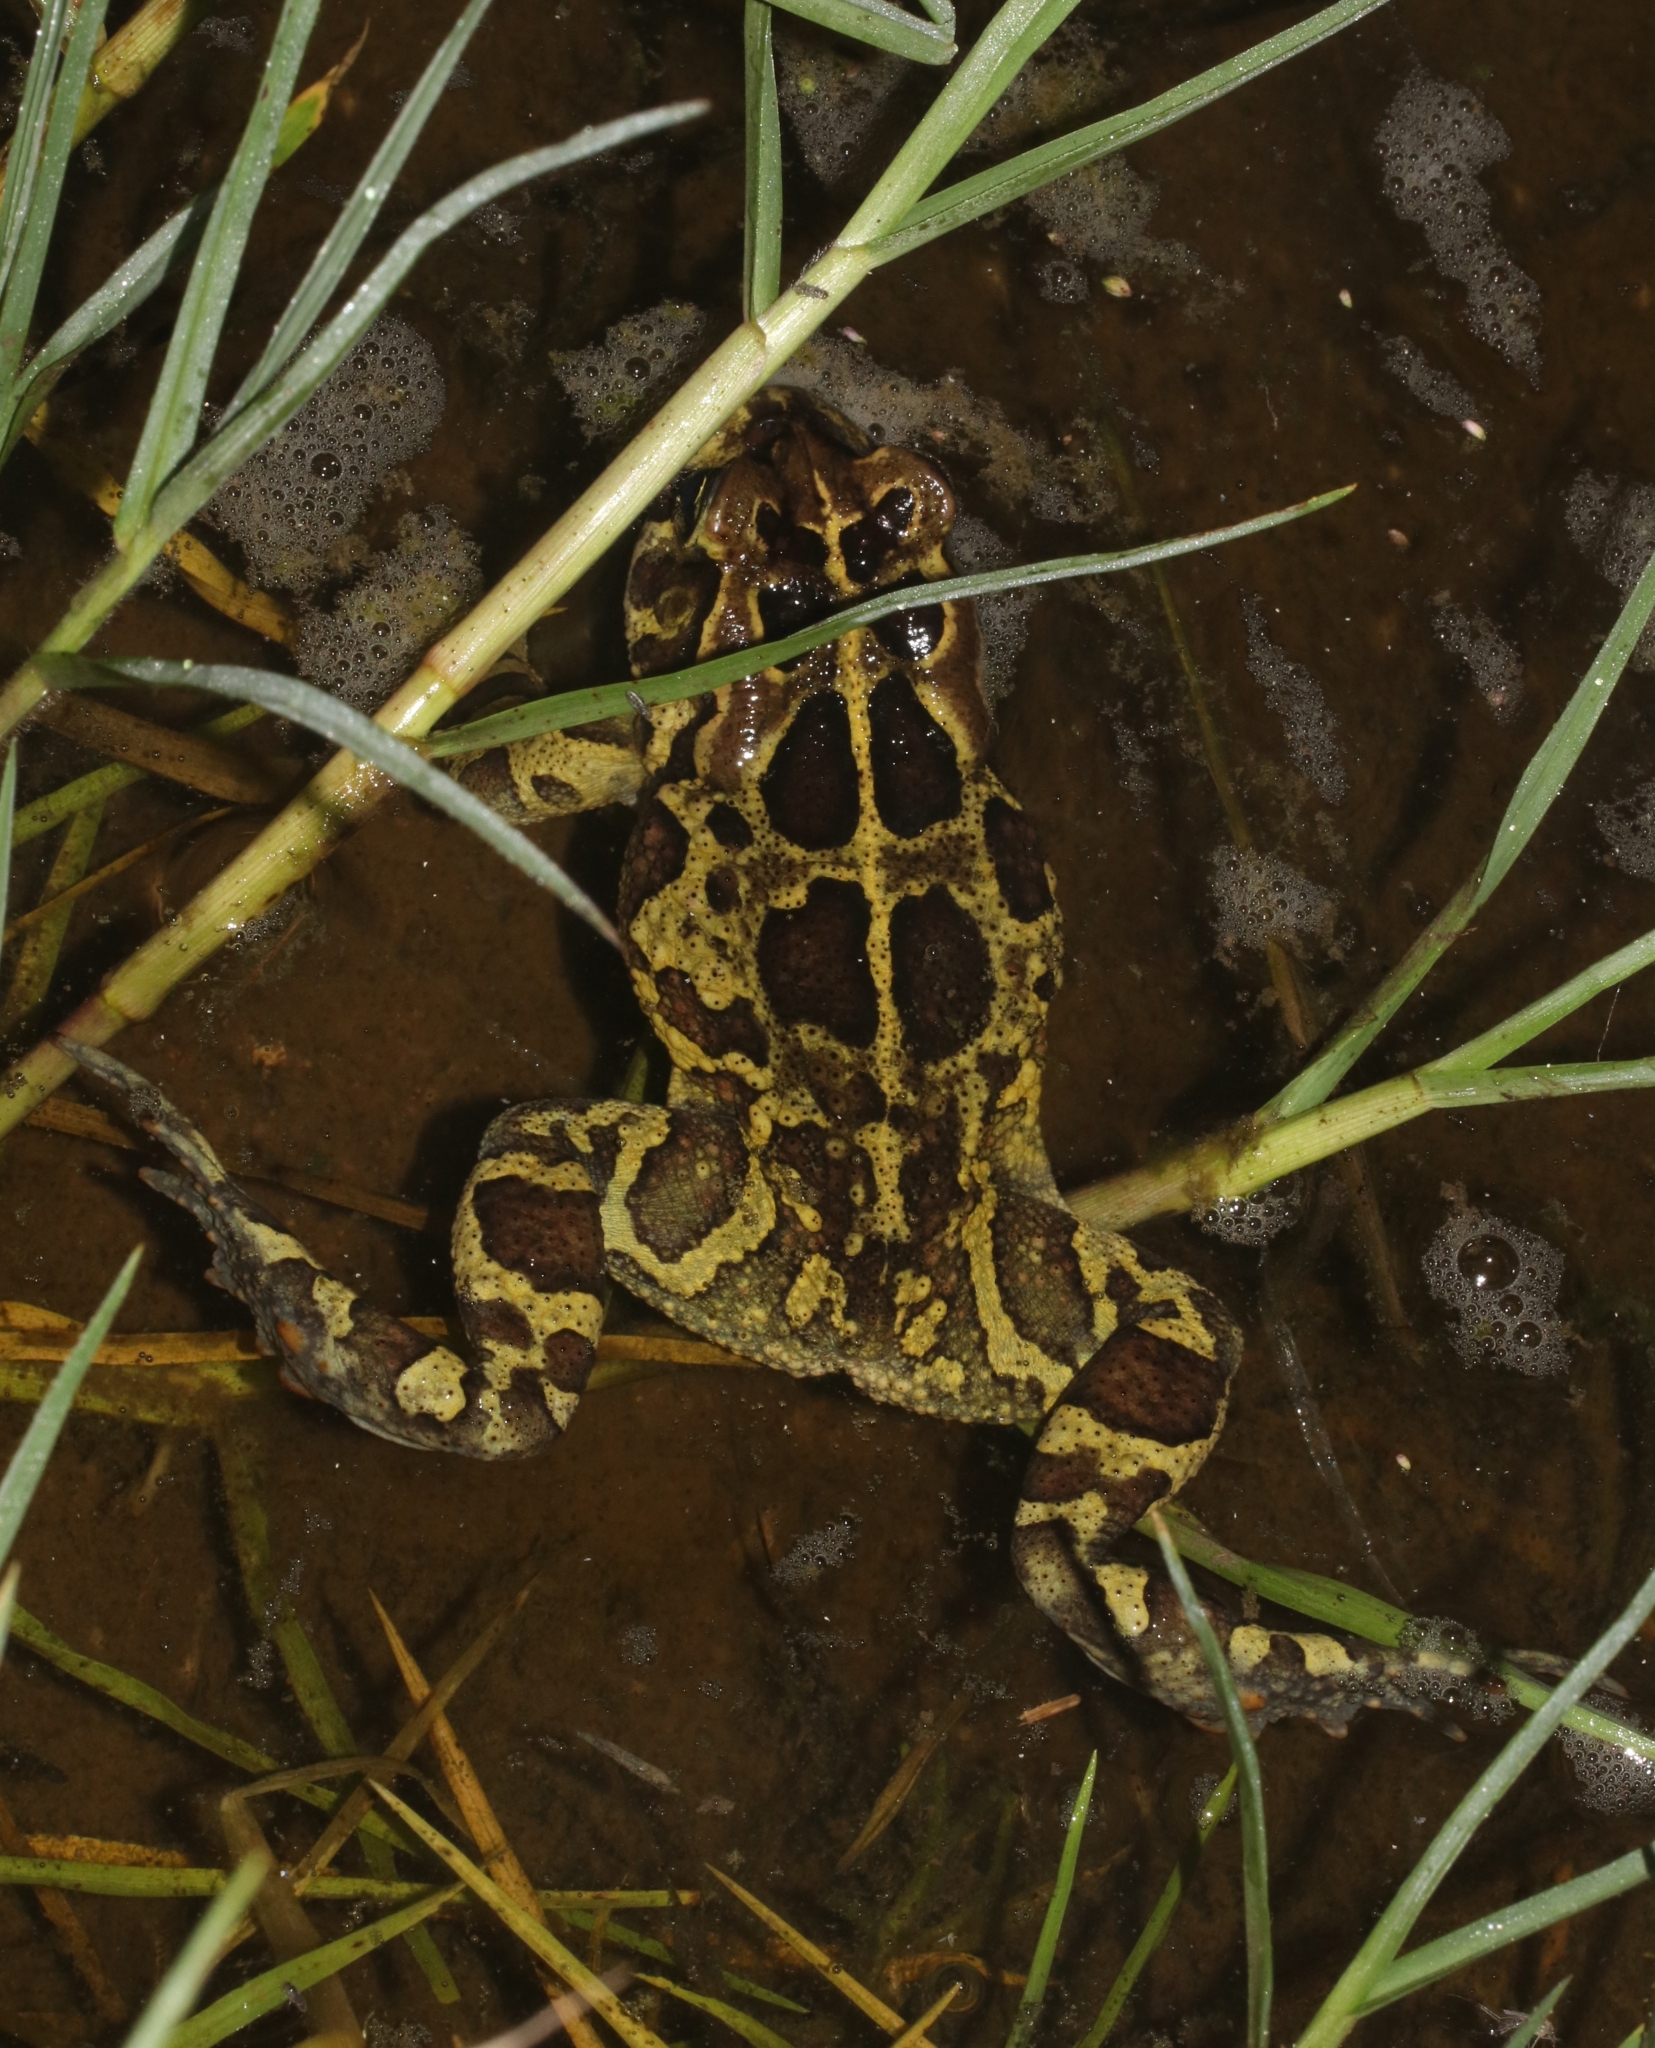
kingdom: Animalia
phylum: Chordata
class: Amphibia
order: Anura
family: Bufonidae
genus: Sclerophrys
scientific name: Sclerophrys pantherina
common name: Panther toad
